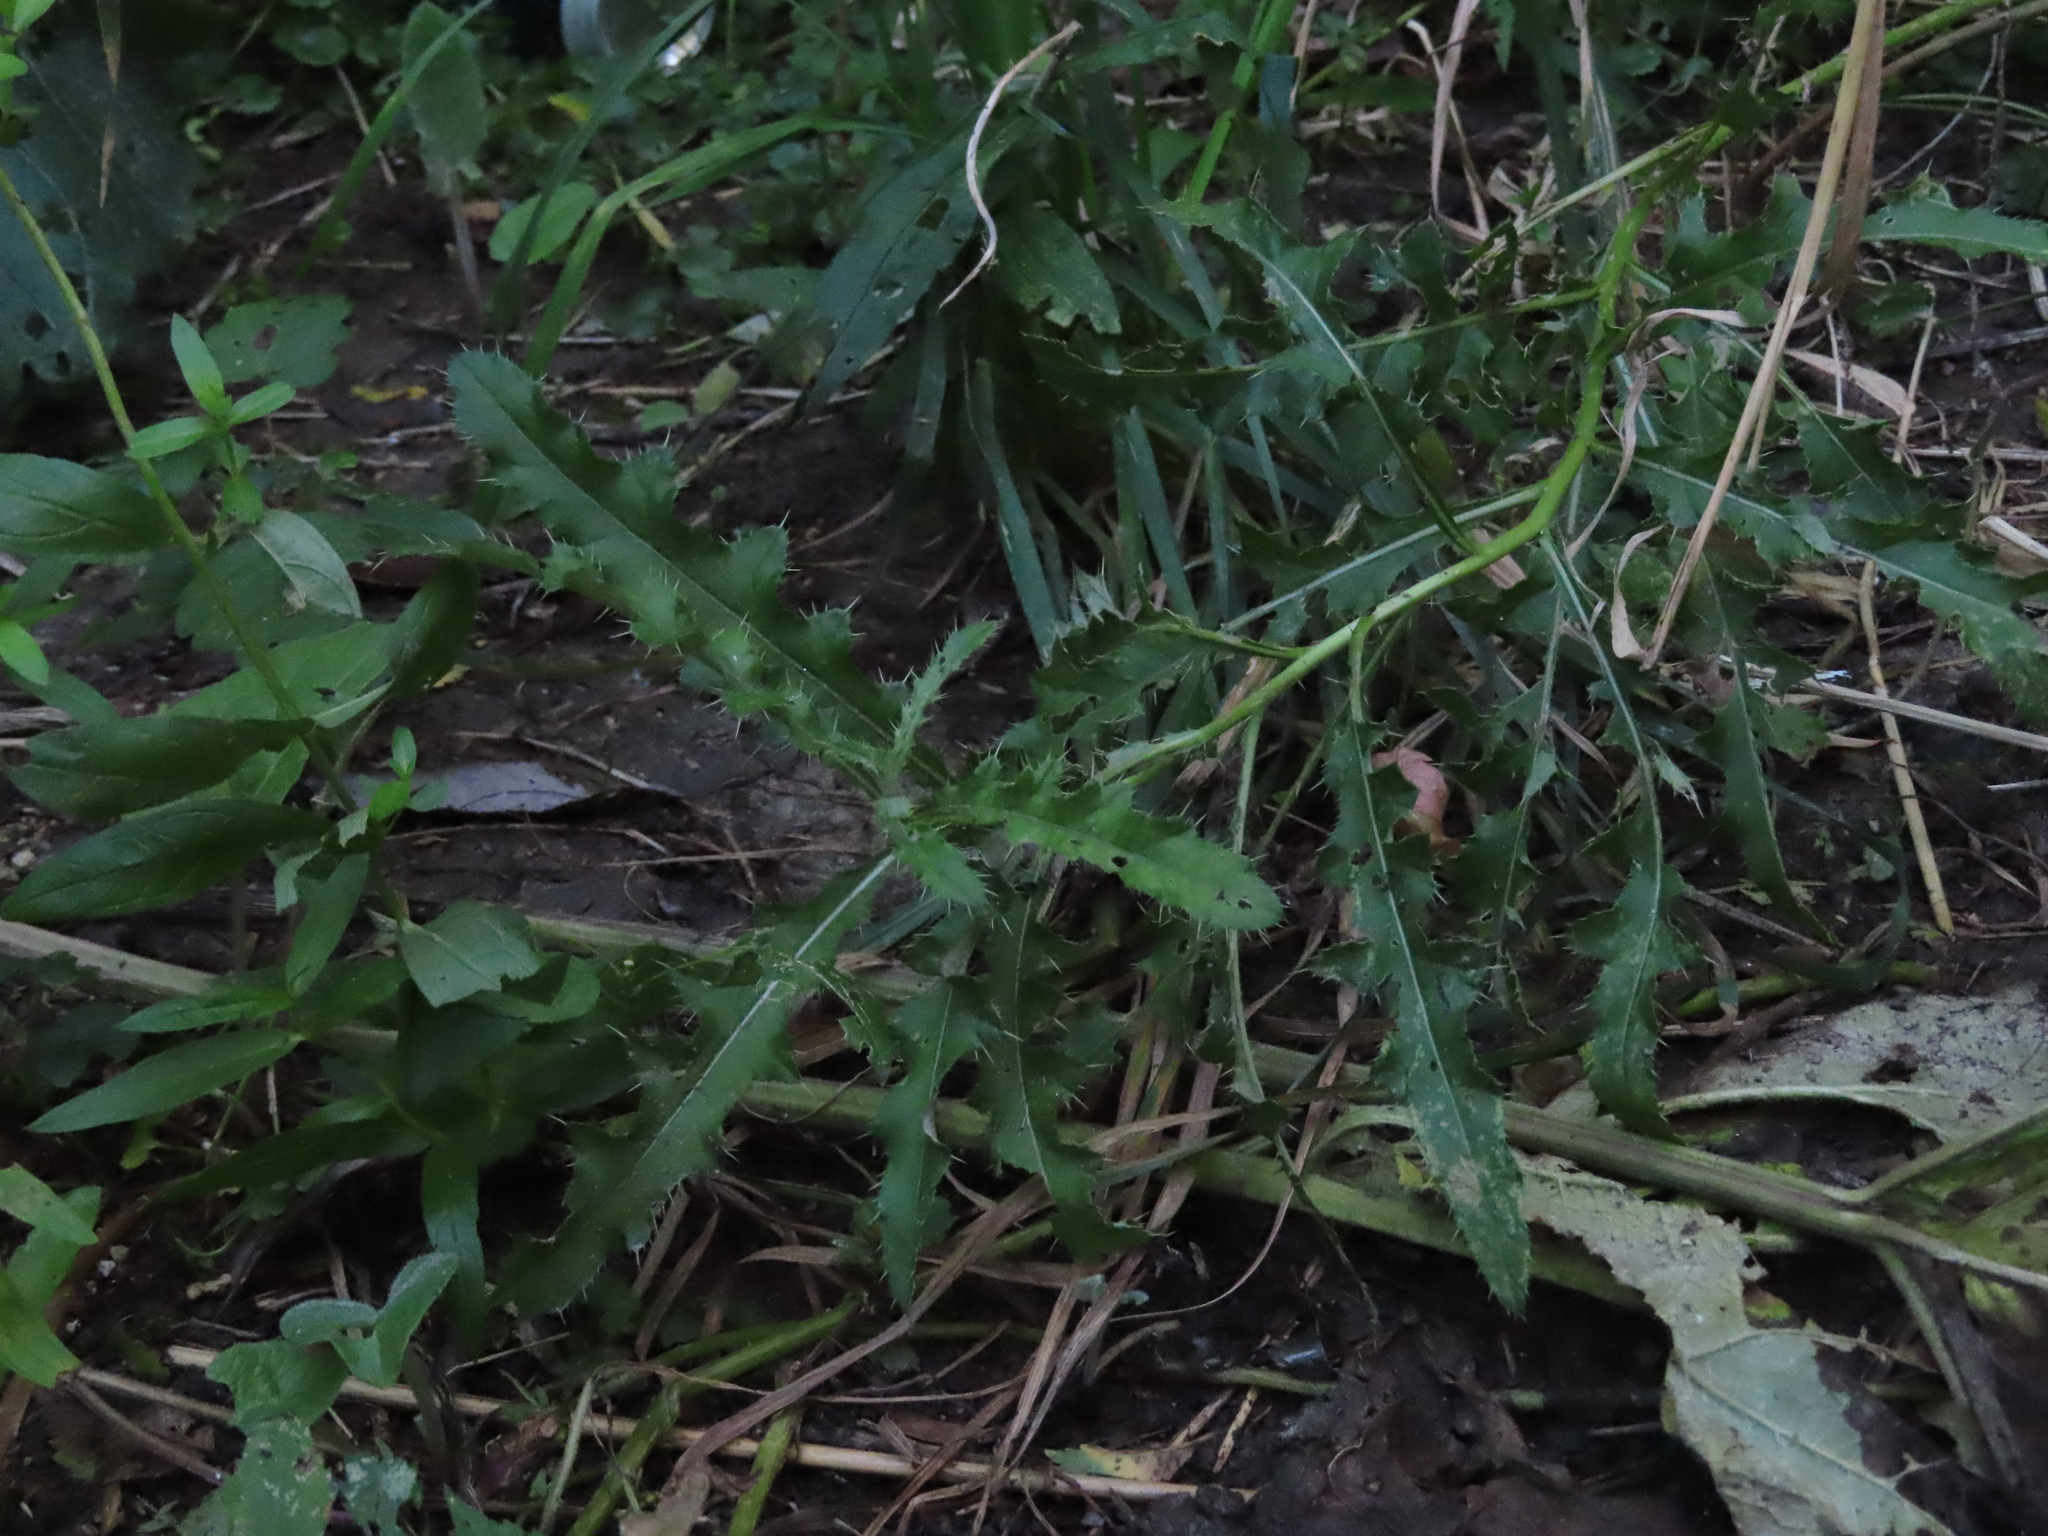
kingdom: Plantae
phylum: Tracheophyta
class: Magnoliopsida
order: Asterales
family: Asteraceae
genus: Cirsium
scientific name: Cirsium arvense
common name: Creeping thistle
